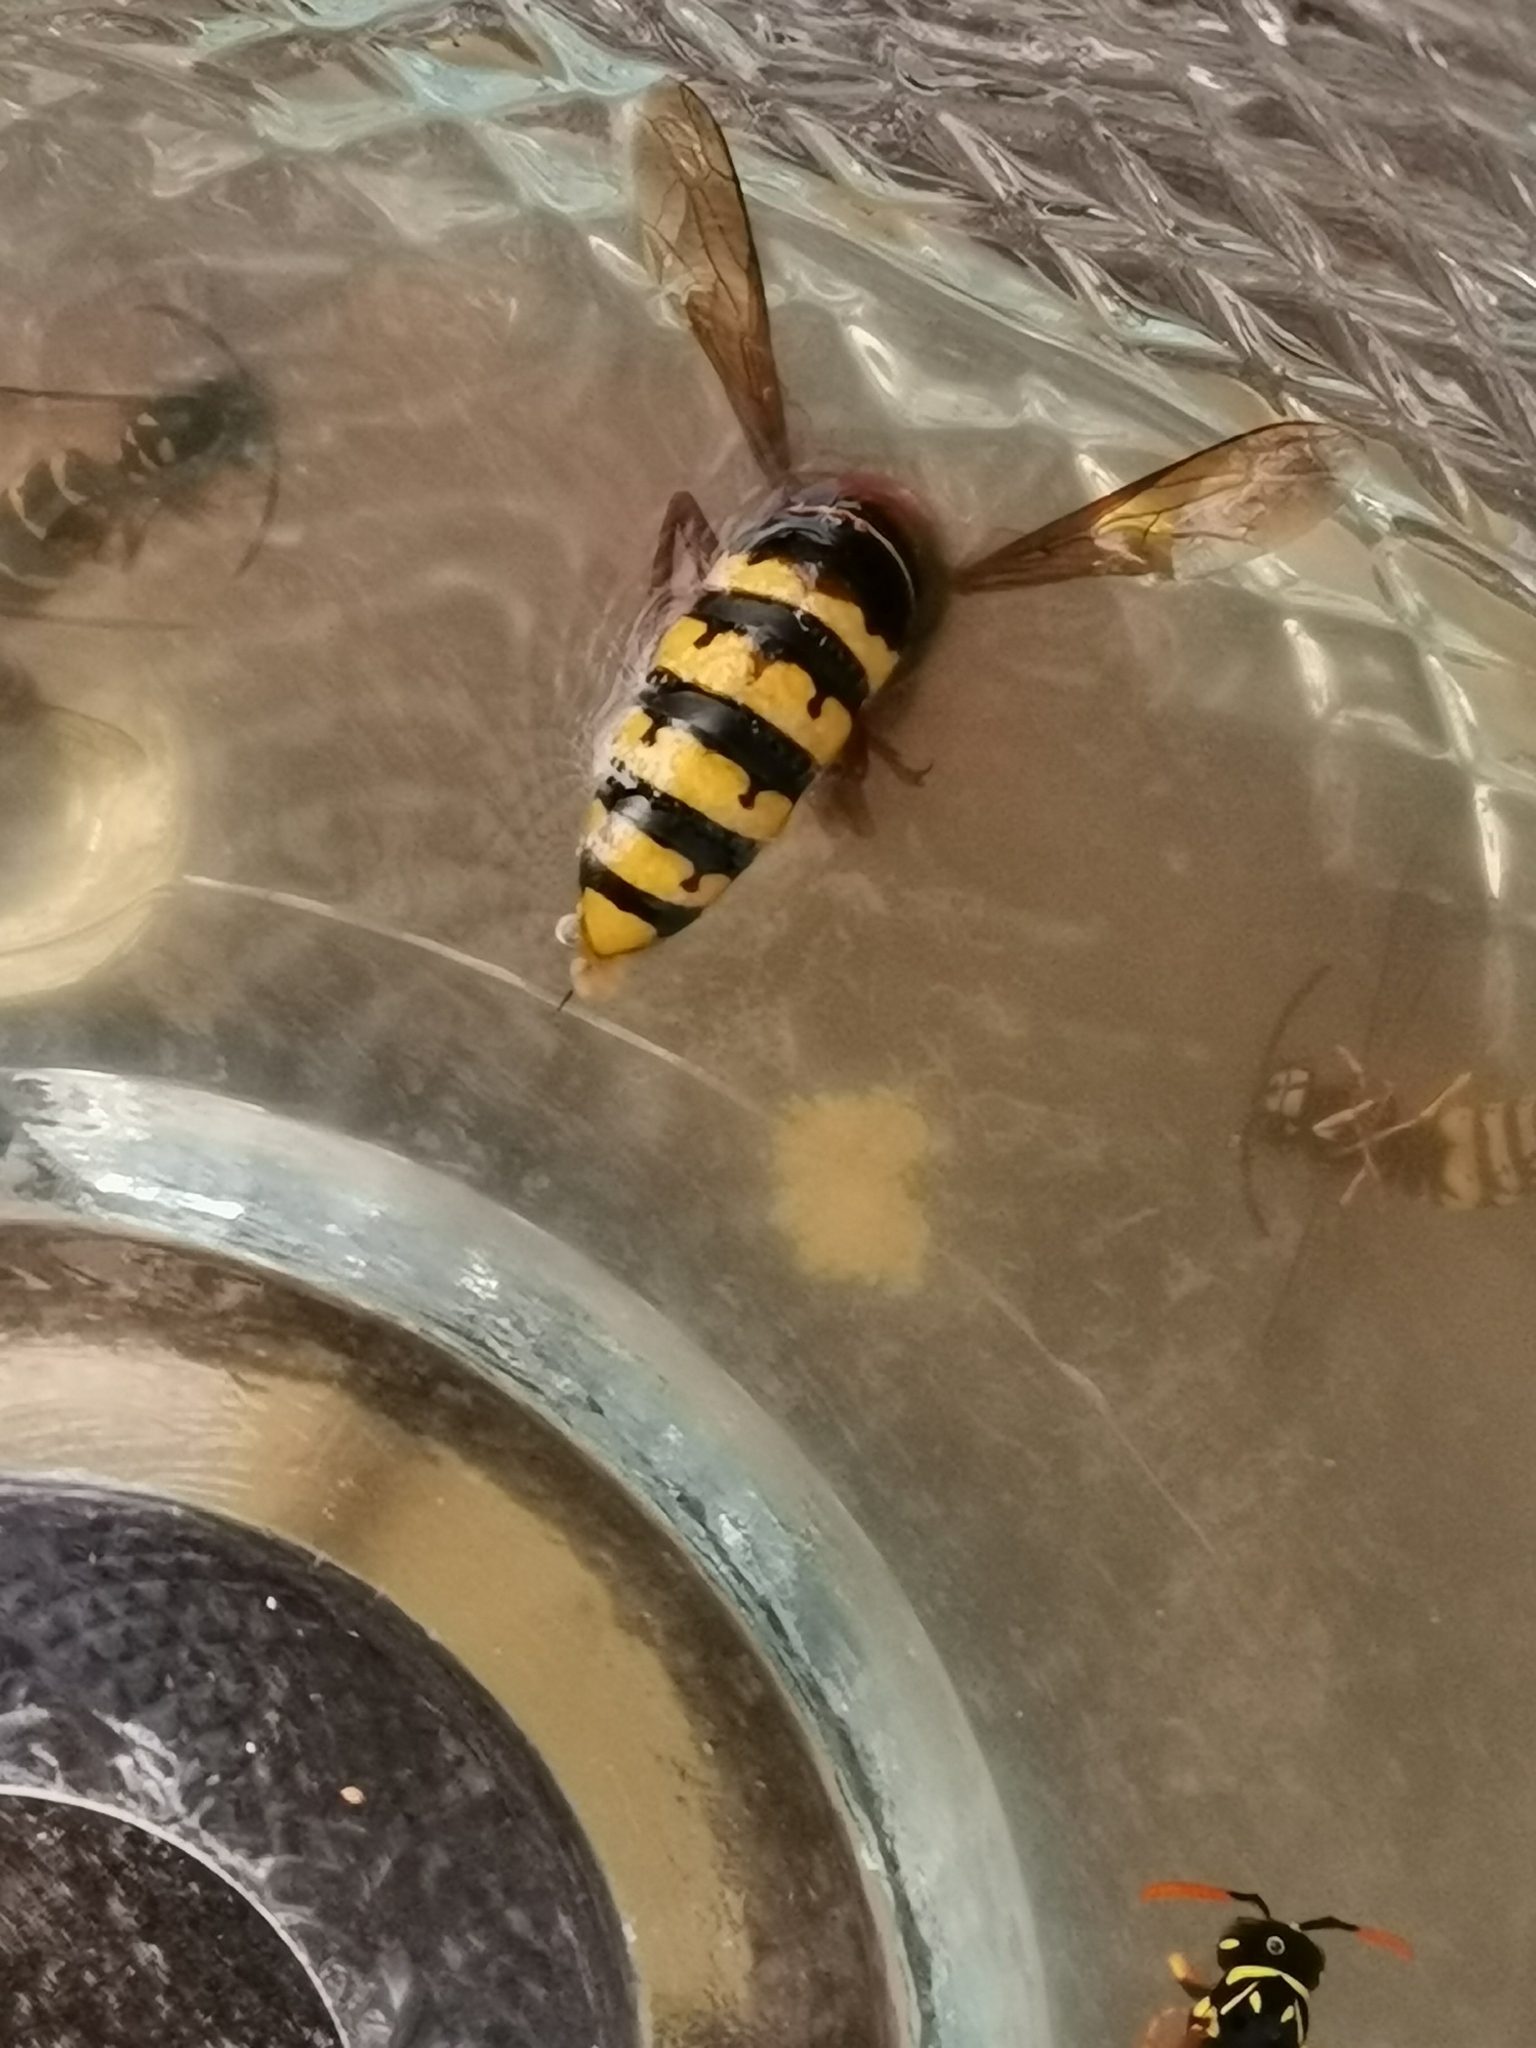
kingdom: Animalia
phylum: Arthropoda
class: Insecta
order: Hymenoptera
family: Vespidae
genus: Vespa
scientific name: Vespa crabro
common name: Hornet
